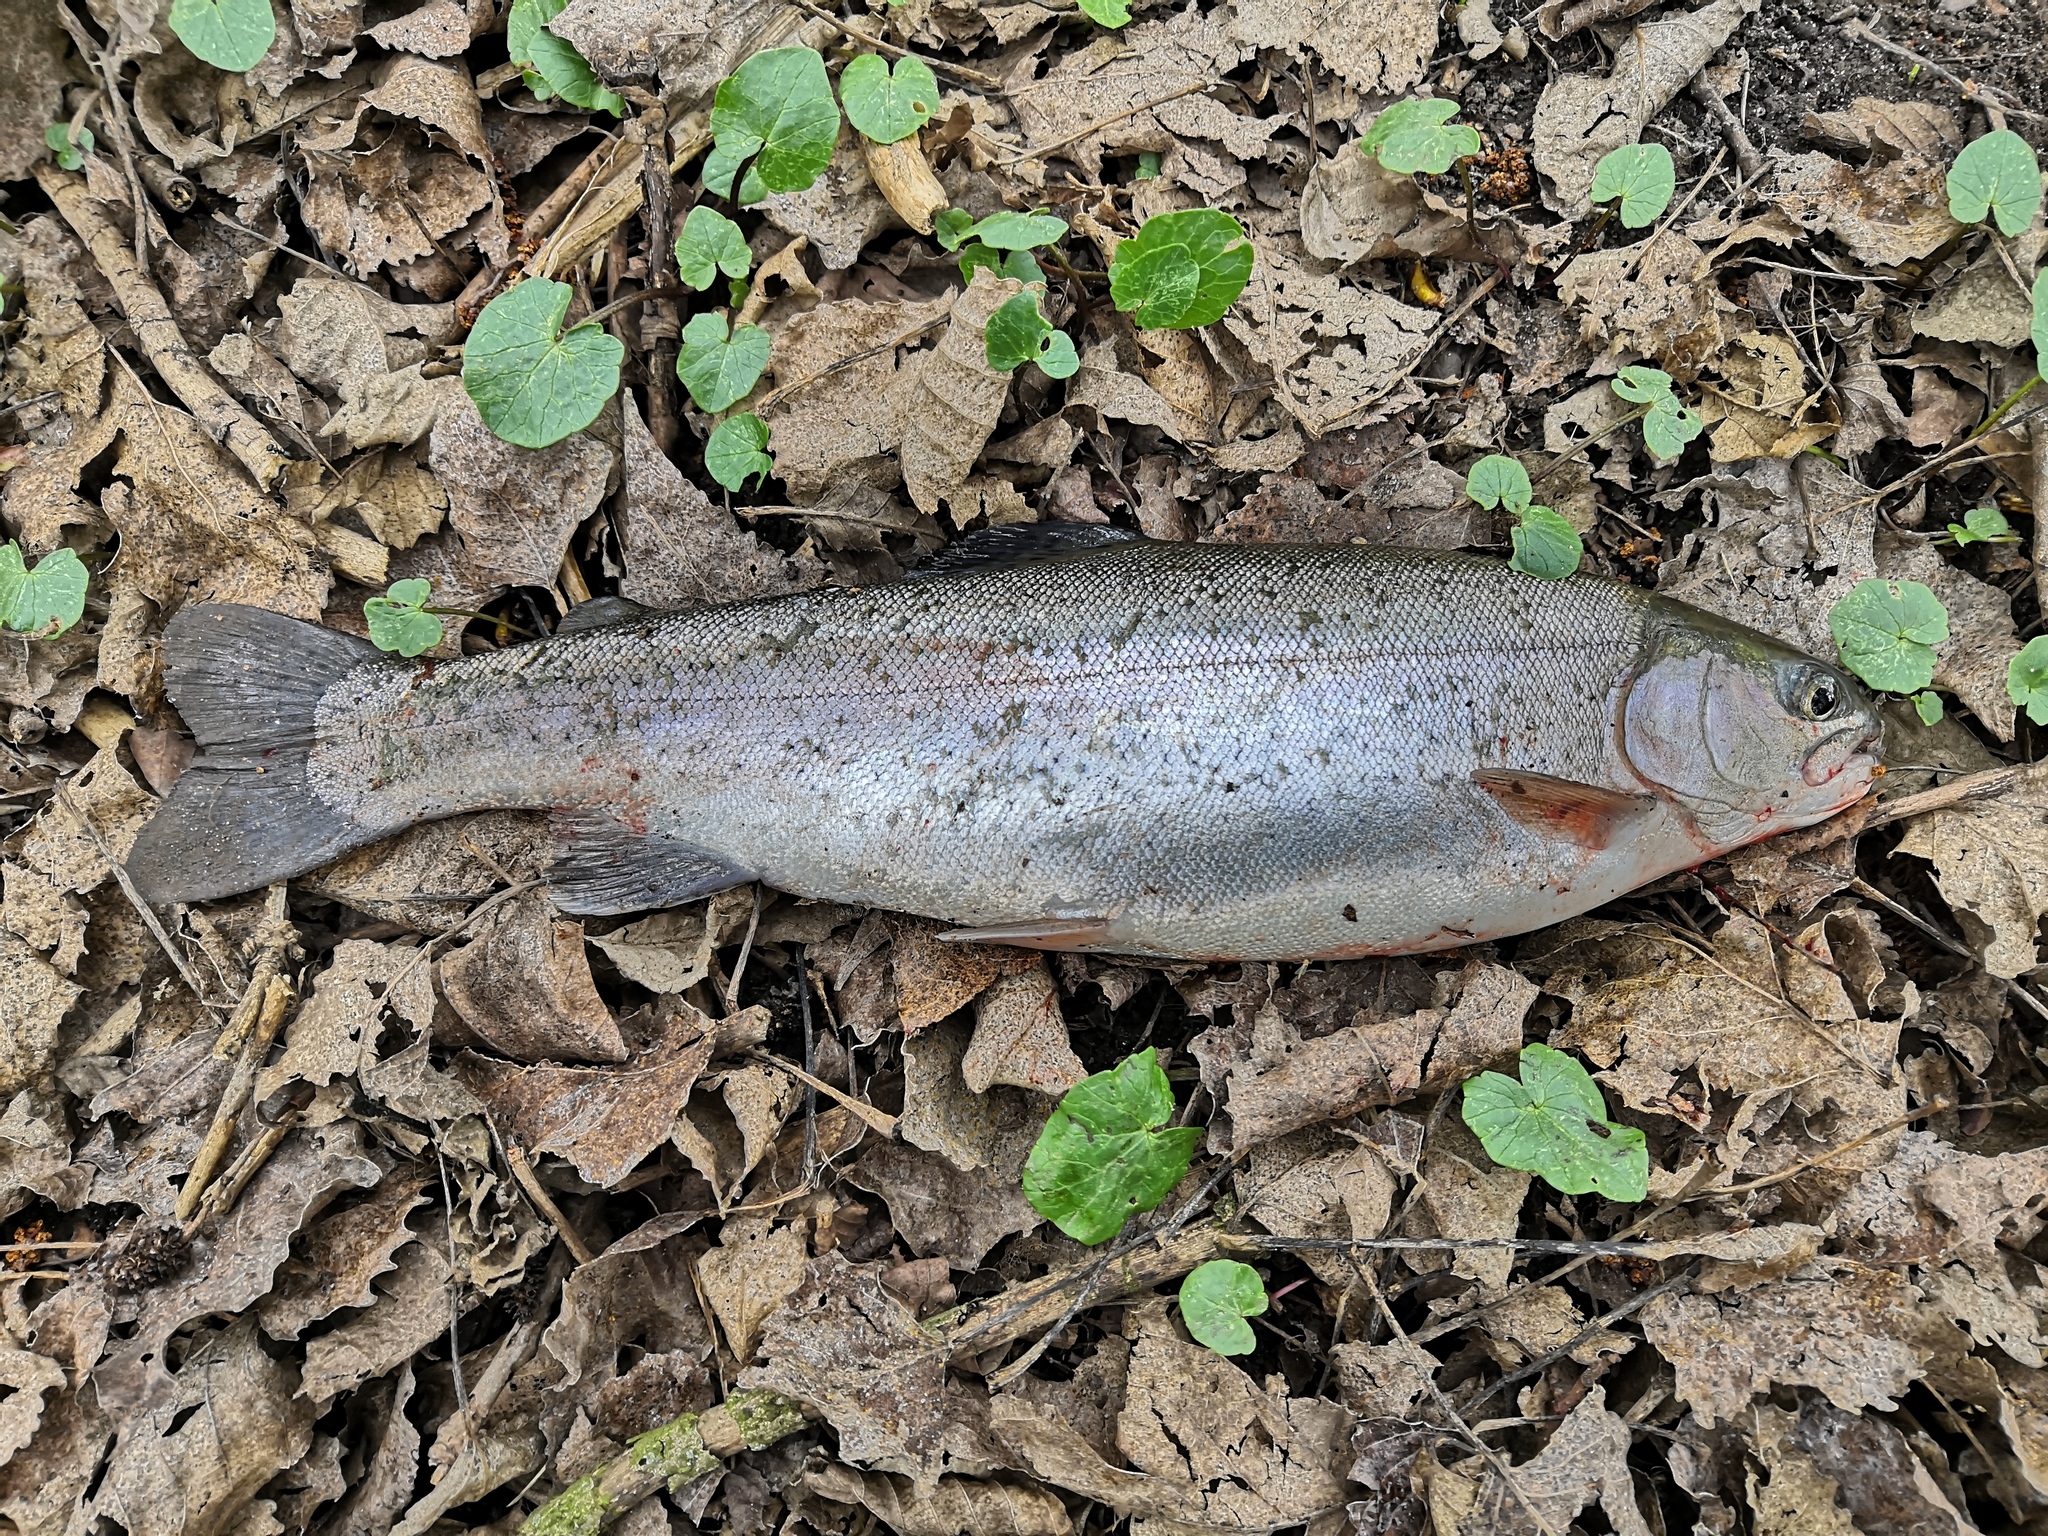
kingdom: Animalia
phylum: Chordata
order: Salmoniformes
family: Salmonidae
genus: Oncorhynchus
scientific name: Oncorhynchus mykiss
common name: Rainbow trout
